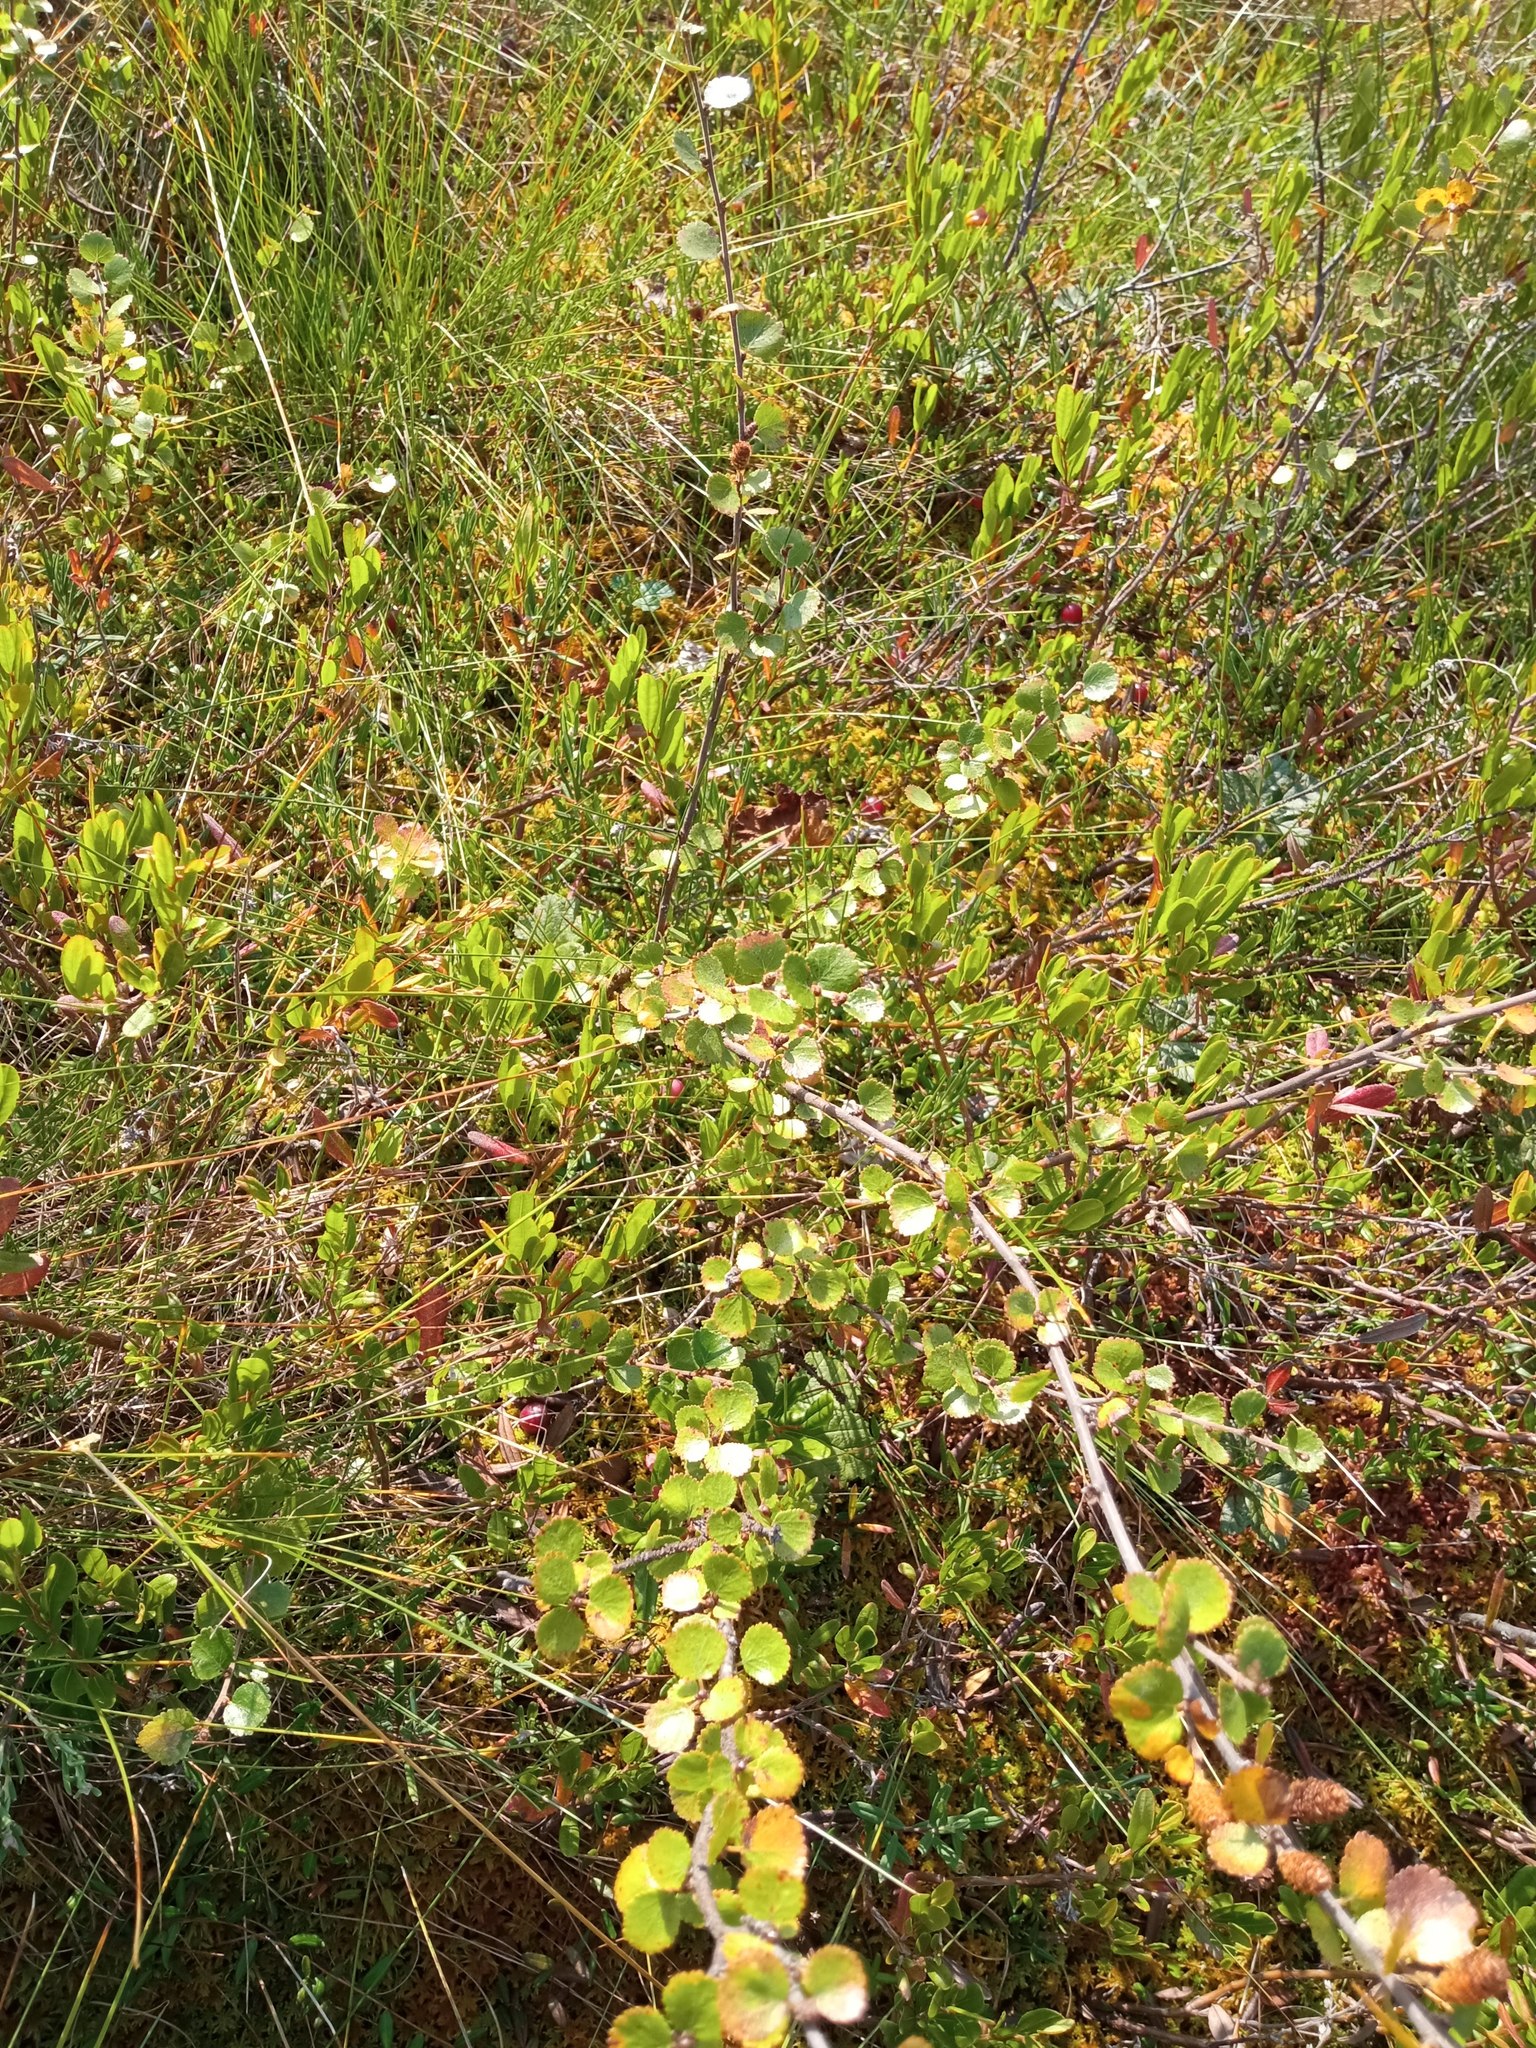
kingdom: Plantae
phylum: Tracheophyta
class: Magnoliopsida
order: Fagales
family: Betulaceae
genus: Betula
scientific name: Betula nana
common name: Arctic dwarf birch
